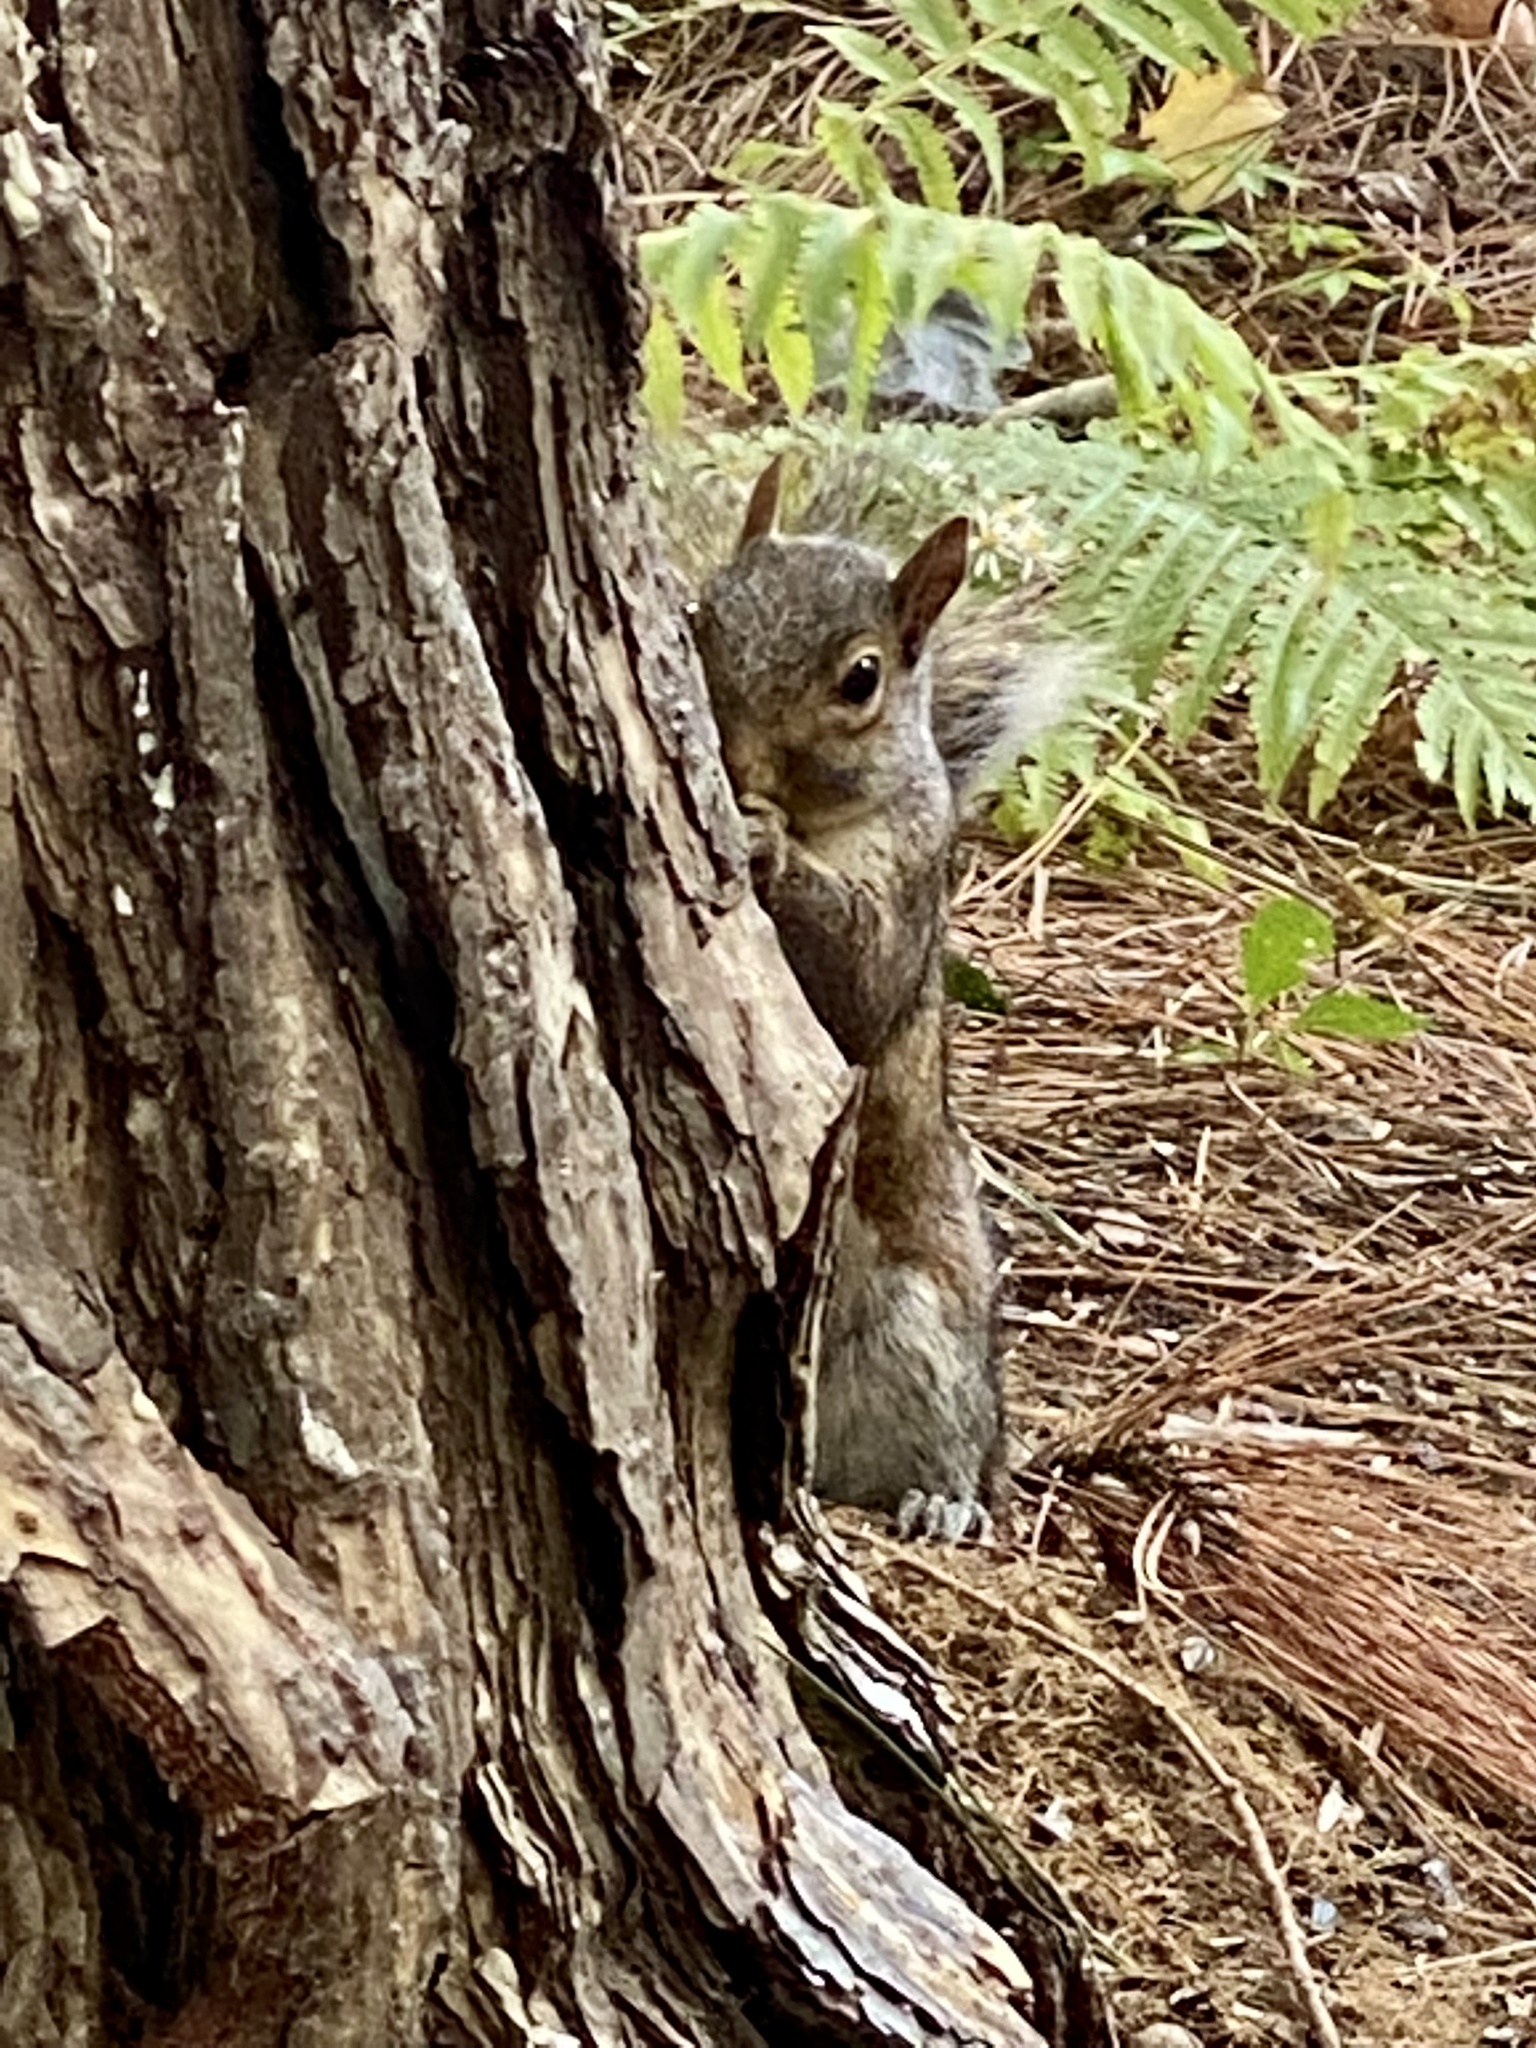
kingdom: Animalia
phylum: Chordata
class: Mammalia
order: Rodentia
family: Sciuridae
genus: Sciurus
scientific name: Sciurus carolinensis
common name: Eastern gray squirrel
